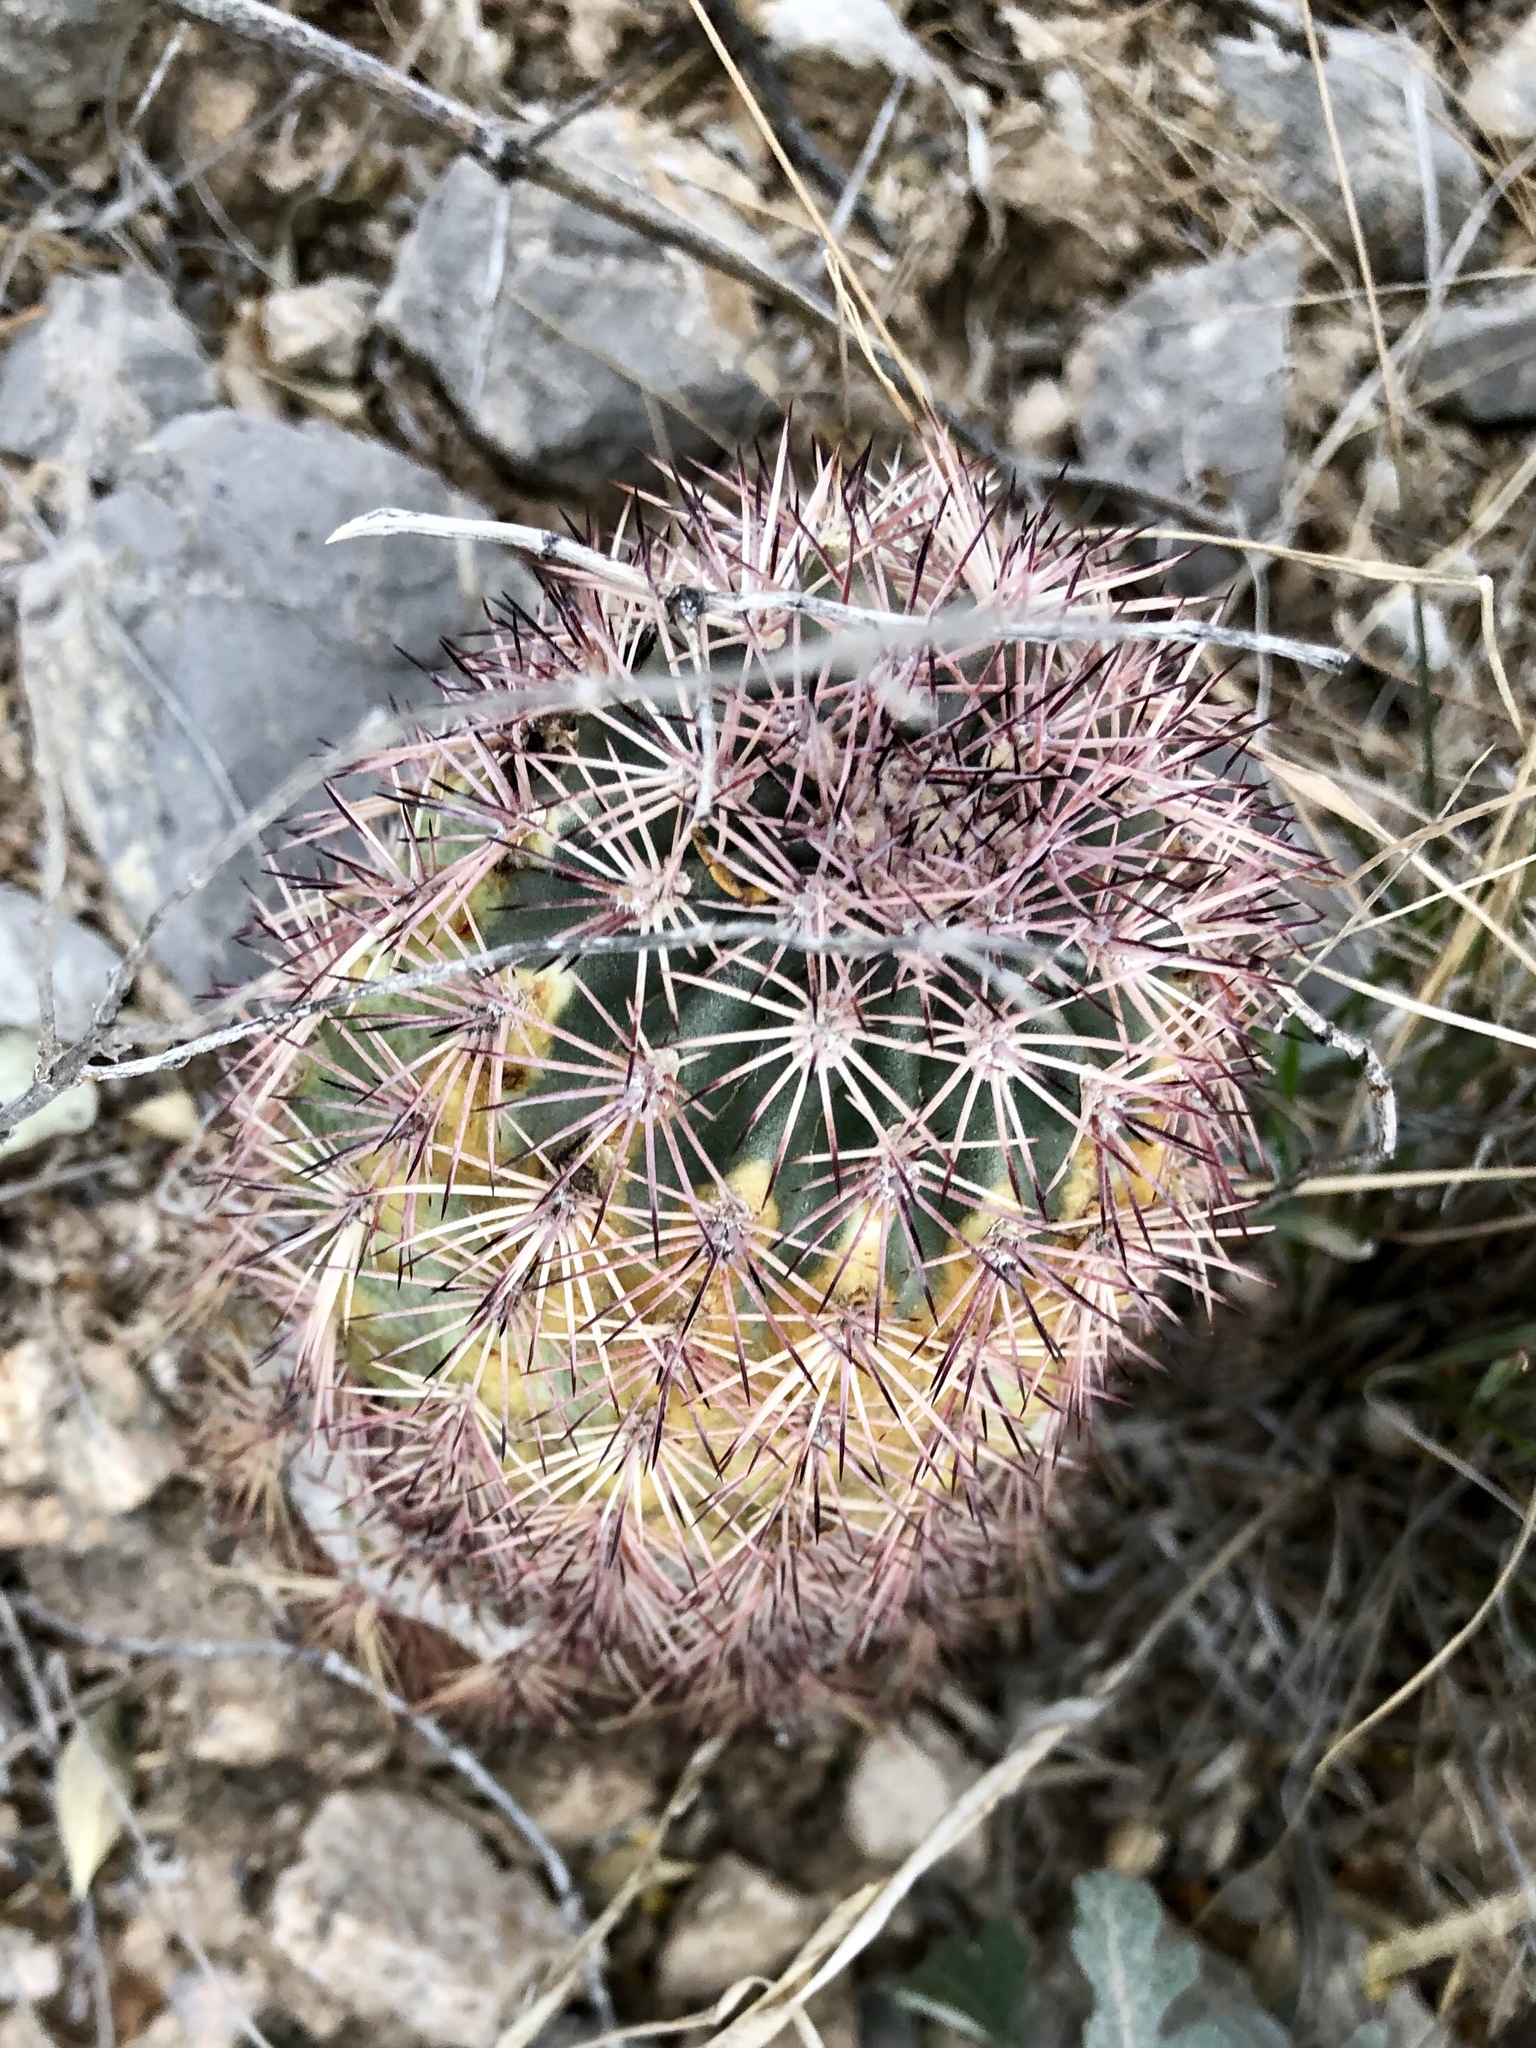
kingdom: Plantae
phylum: Tracheophyta
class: Magnoliopsida
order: Caryophyllales
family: Cactaceae
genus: Echinocereus
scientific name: Echinocereus roetteri
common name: Lloyd's hedgehog cactus
